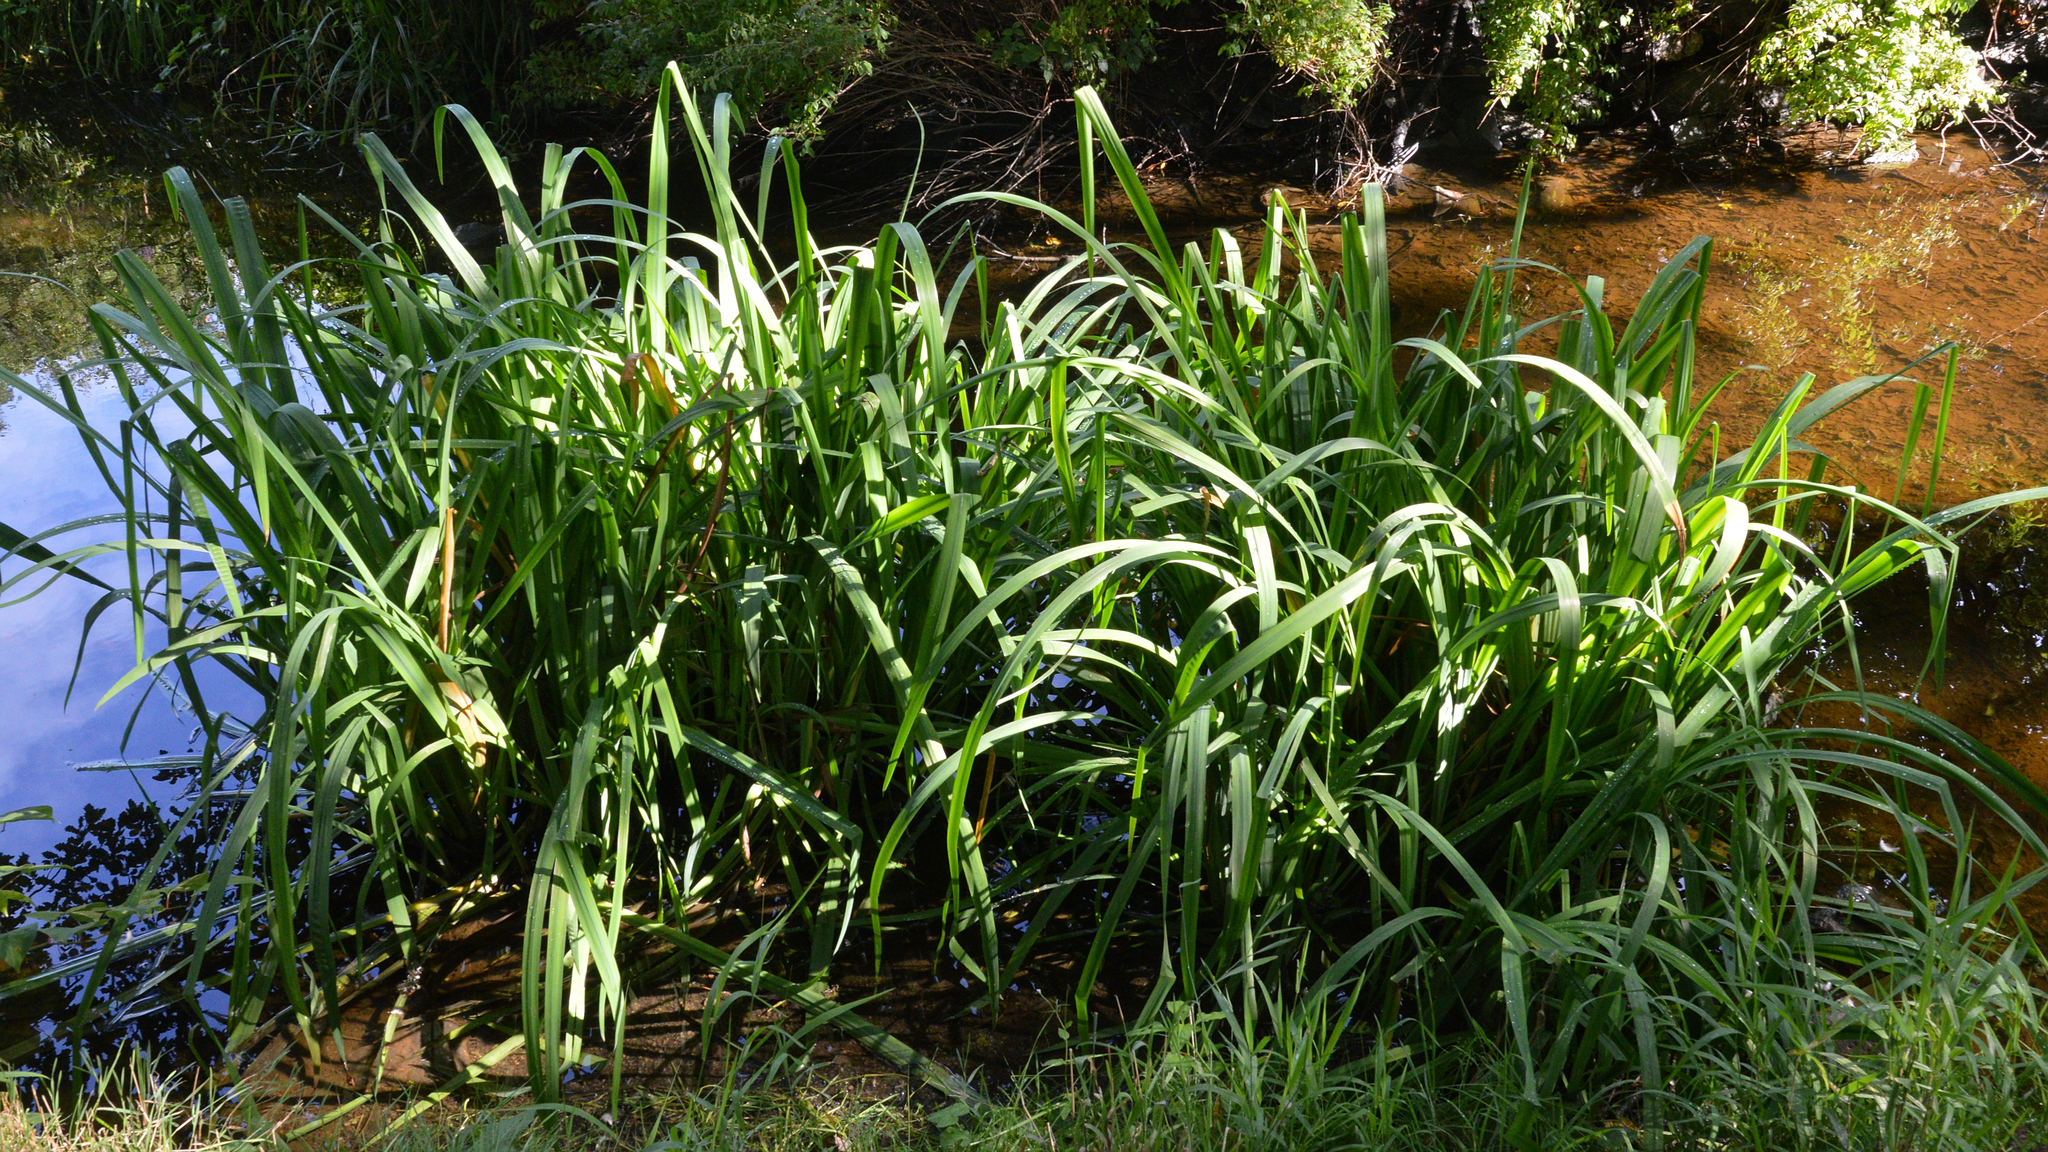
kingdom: Plantae
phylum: Tracheophyta
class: Liliopsida
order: Asparagales
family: Iridaceae
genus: Iris
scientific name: Iris pseudacorus
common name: Yellow flag
